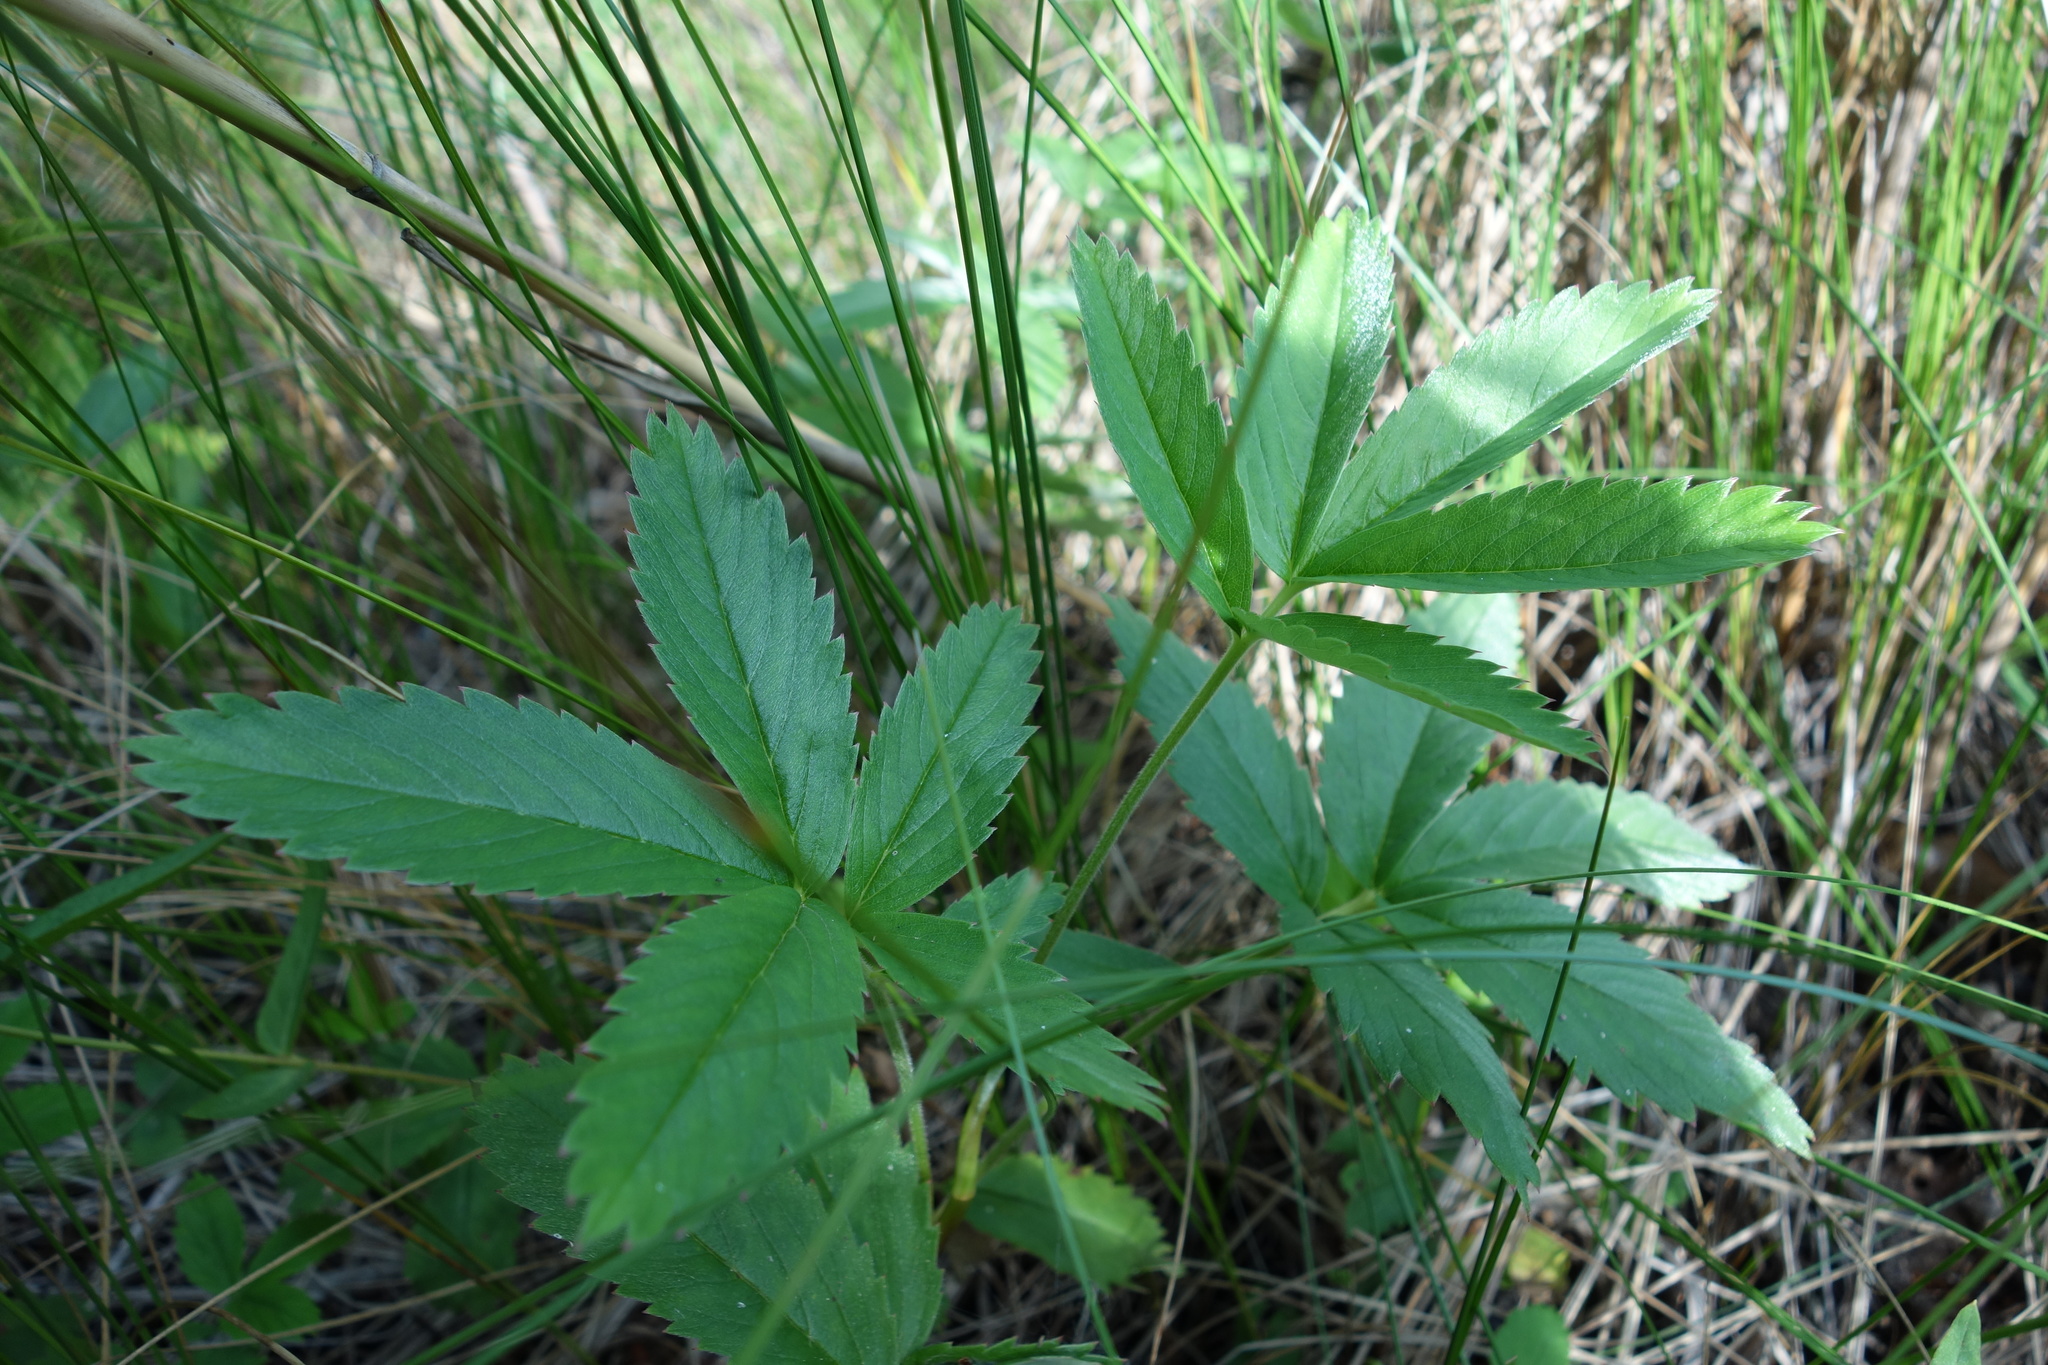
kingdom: Plantae
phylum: Tracheophyta
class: Magnoliopsida
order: Rosales
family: Rosaceae
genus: Comarum
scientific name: Comarum palustre
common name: Marsh cinquefoil
